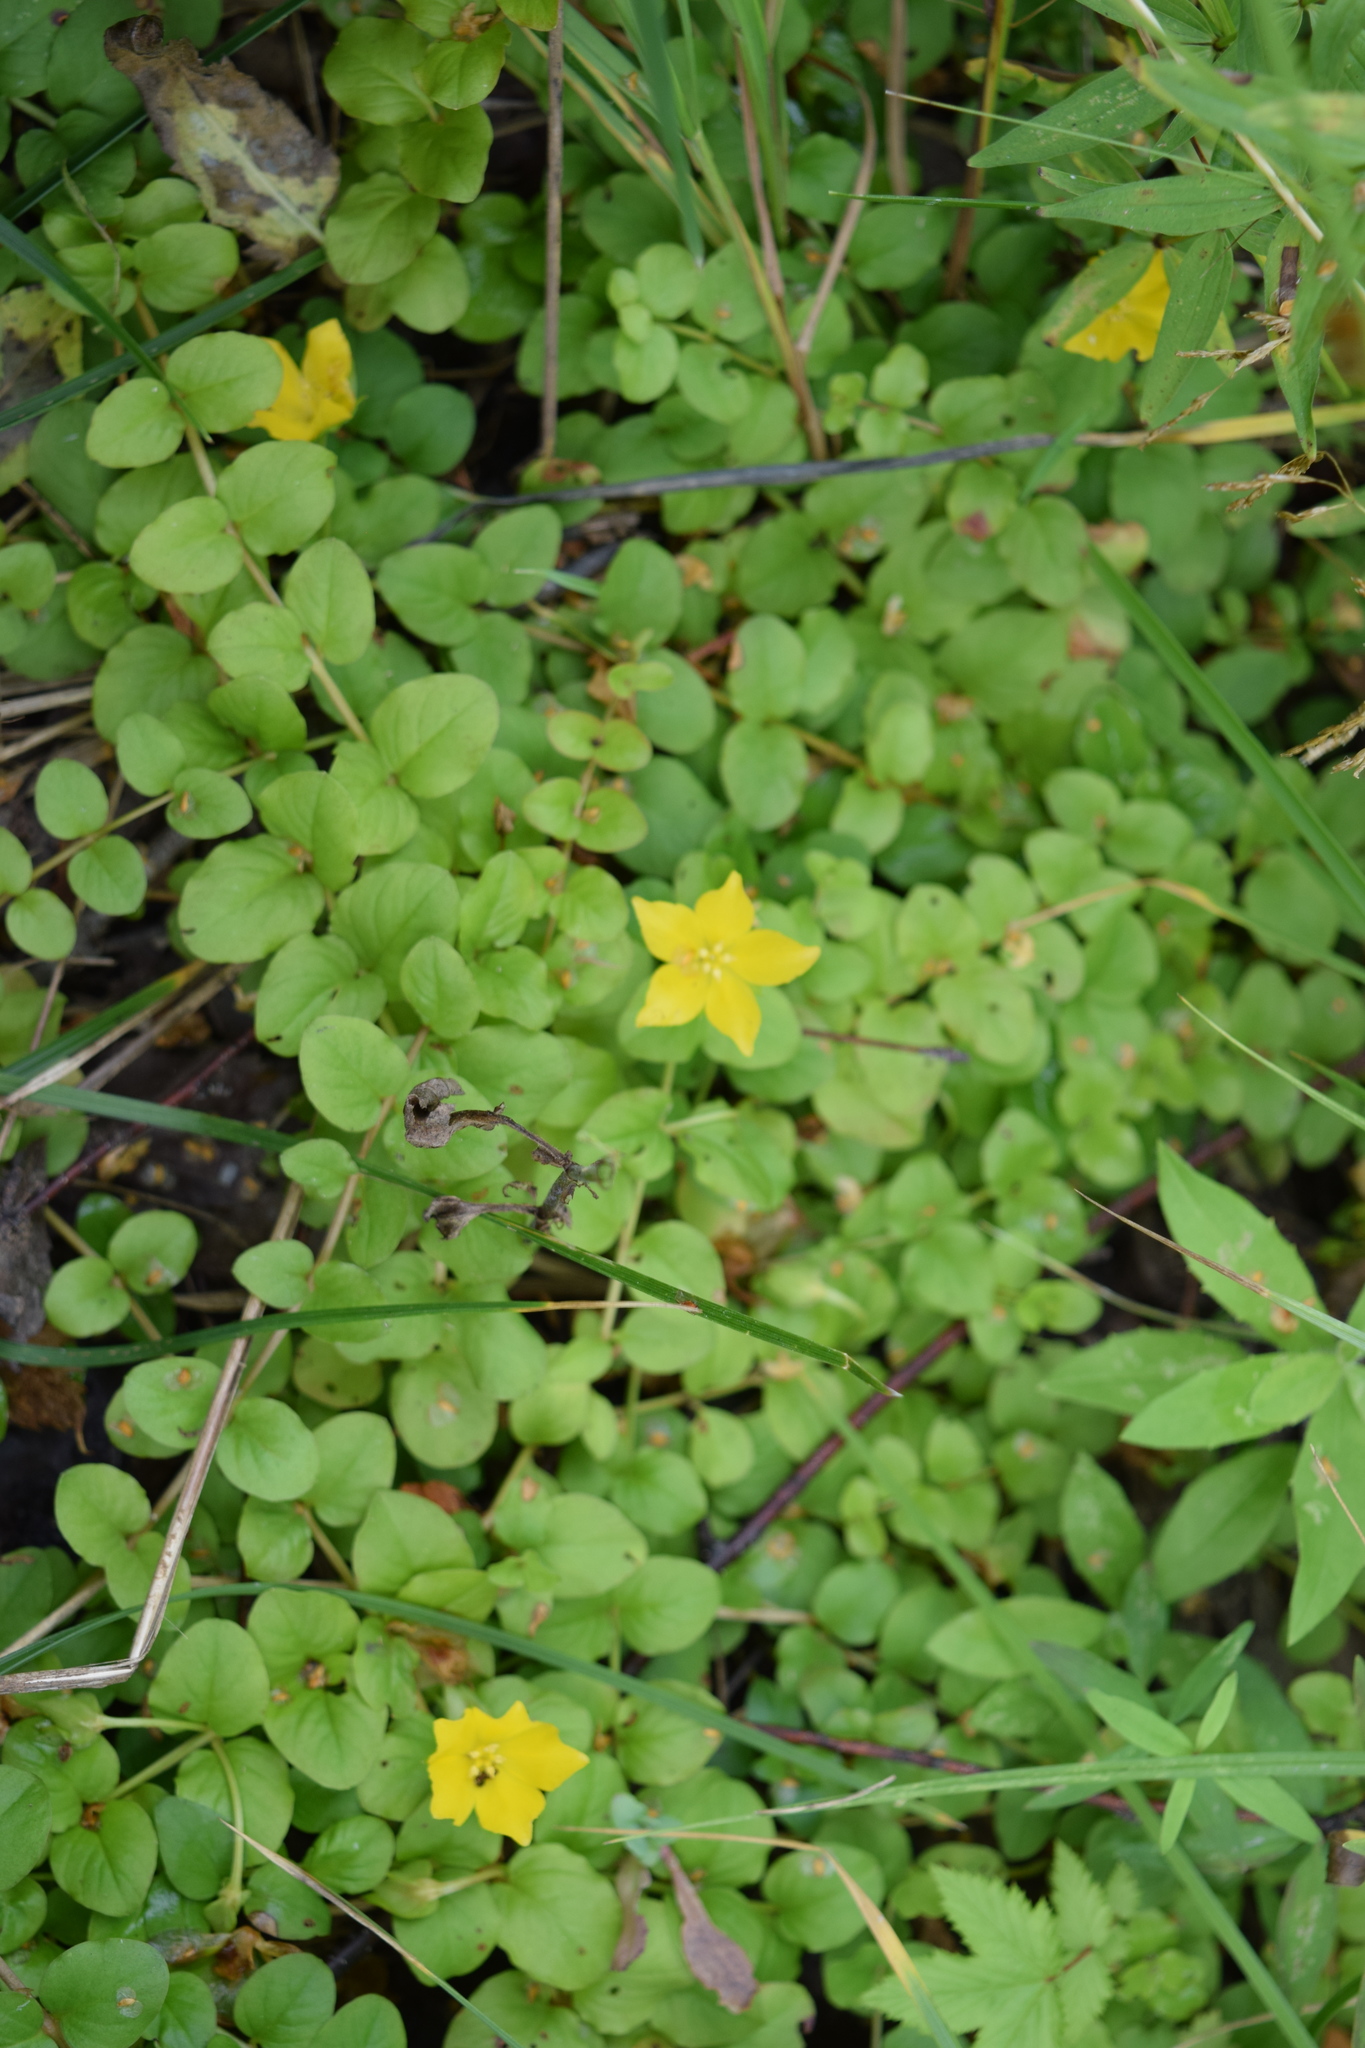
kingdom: Plantae
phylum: Tracheophyta
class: Magnoliopsida
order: Ericales
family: Primulaceae
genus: Lysimachia
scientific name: Lysimachia nummularia
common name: Moneywort
